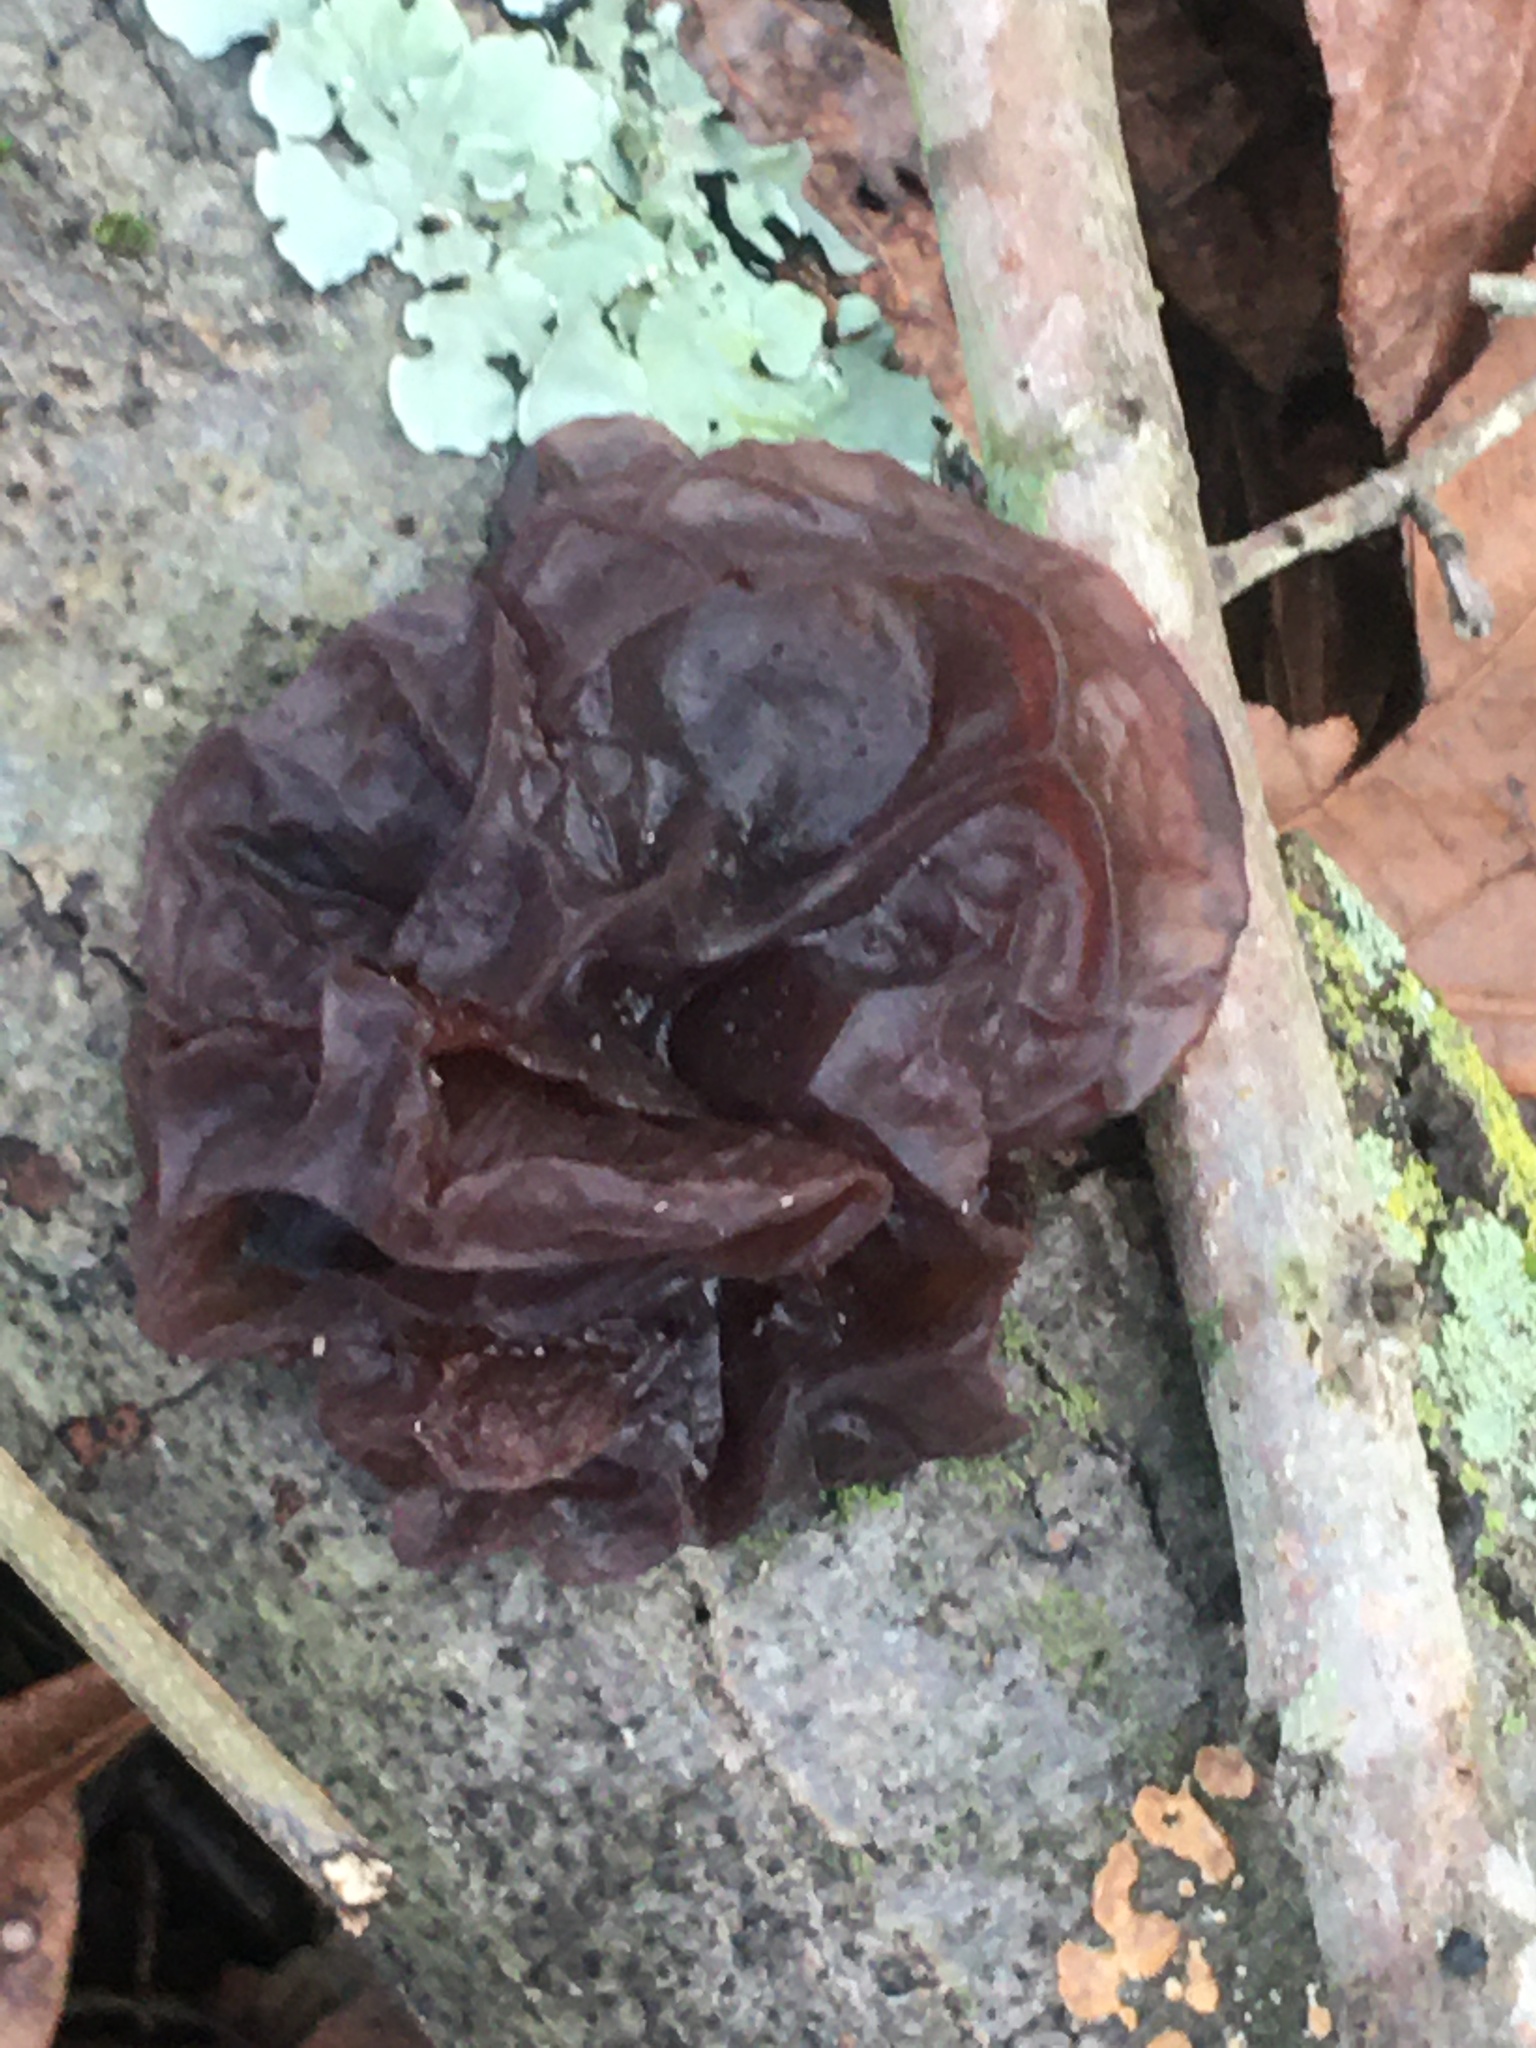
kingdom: Fungi
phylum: Basidiomycota
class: Agaricomycetes
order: Auriculariales
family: Auriculariaceae
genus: Exidia
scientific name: Exidia
